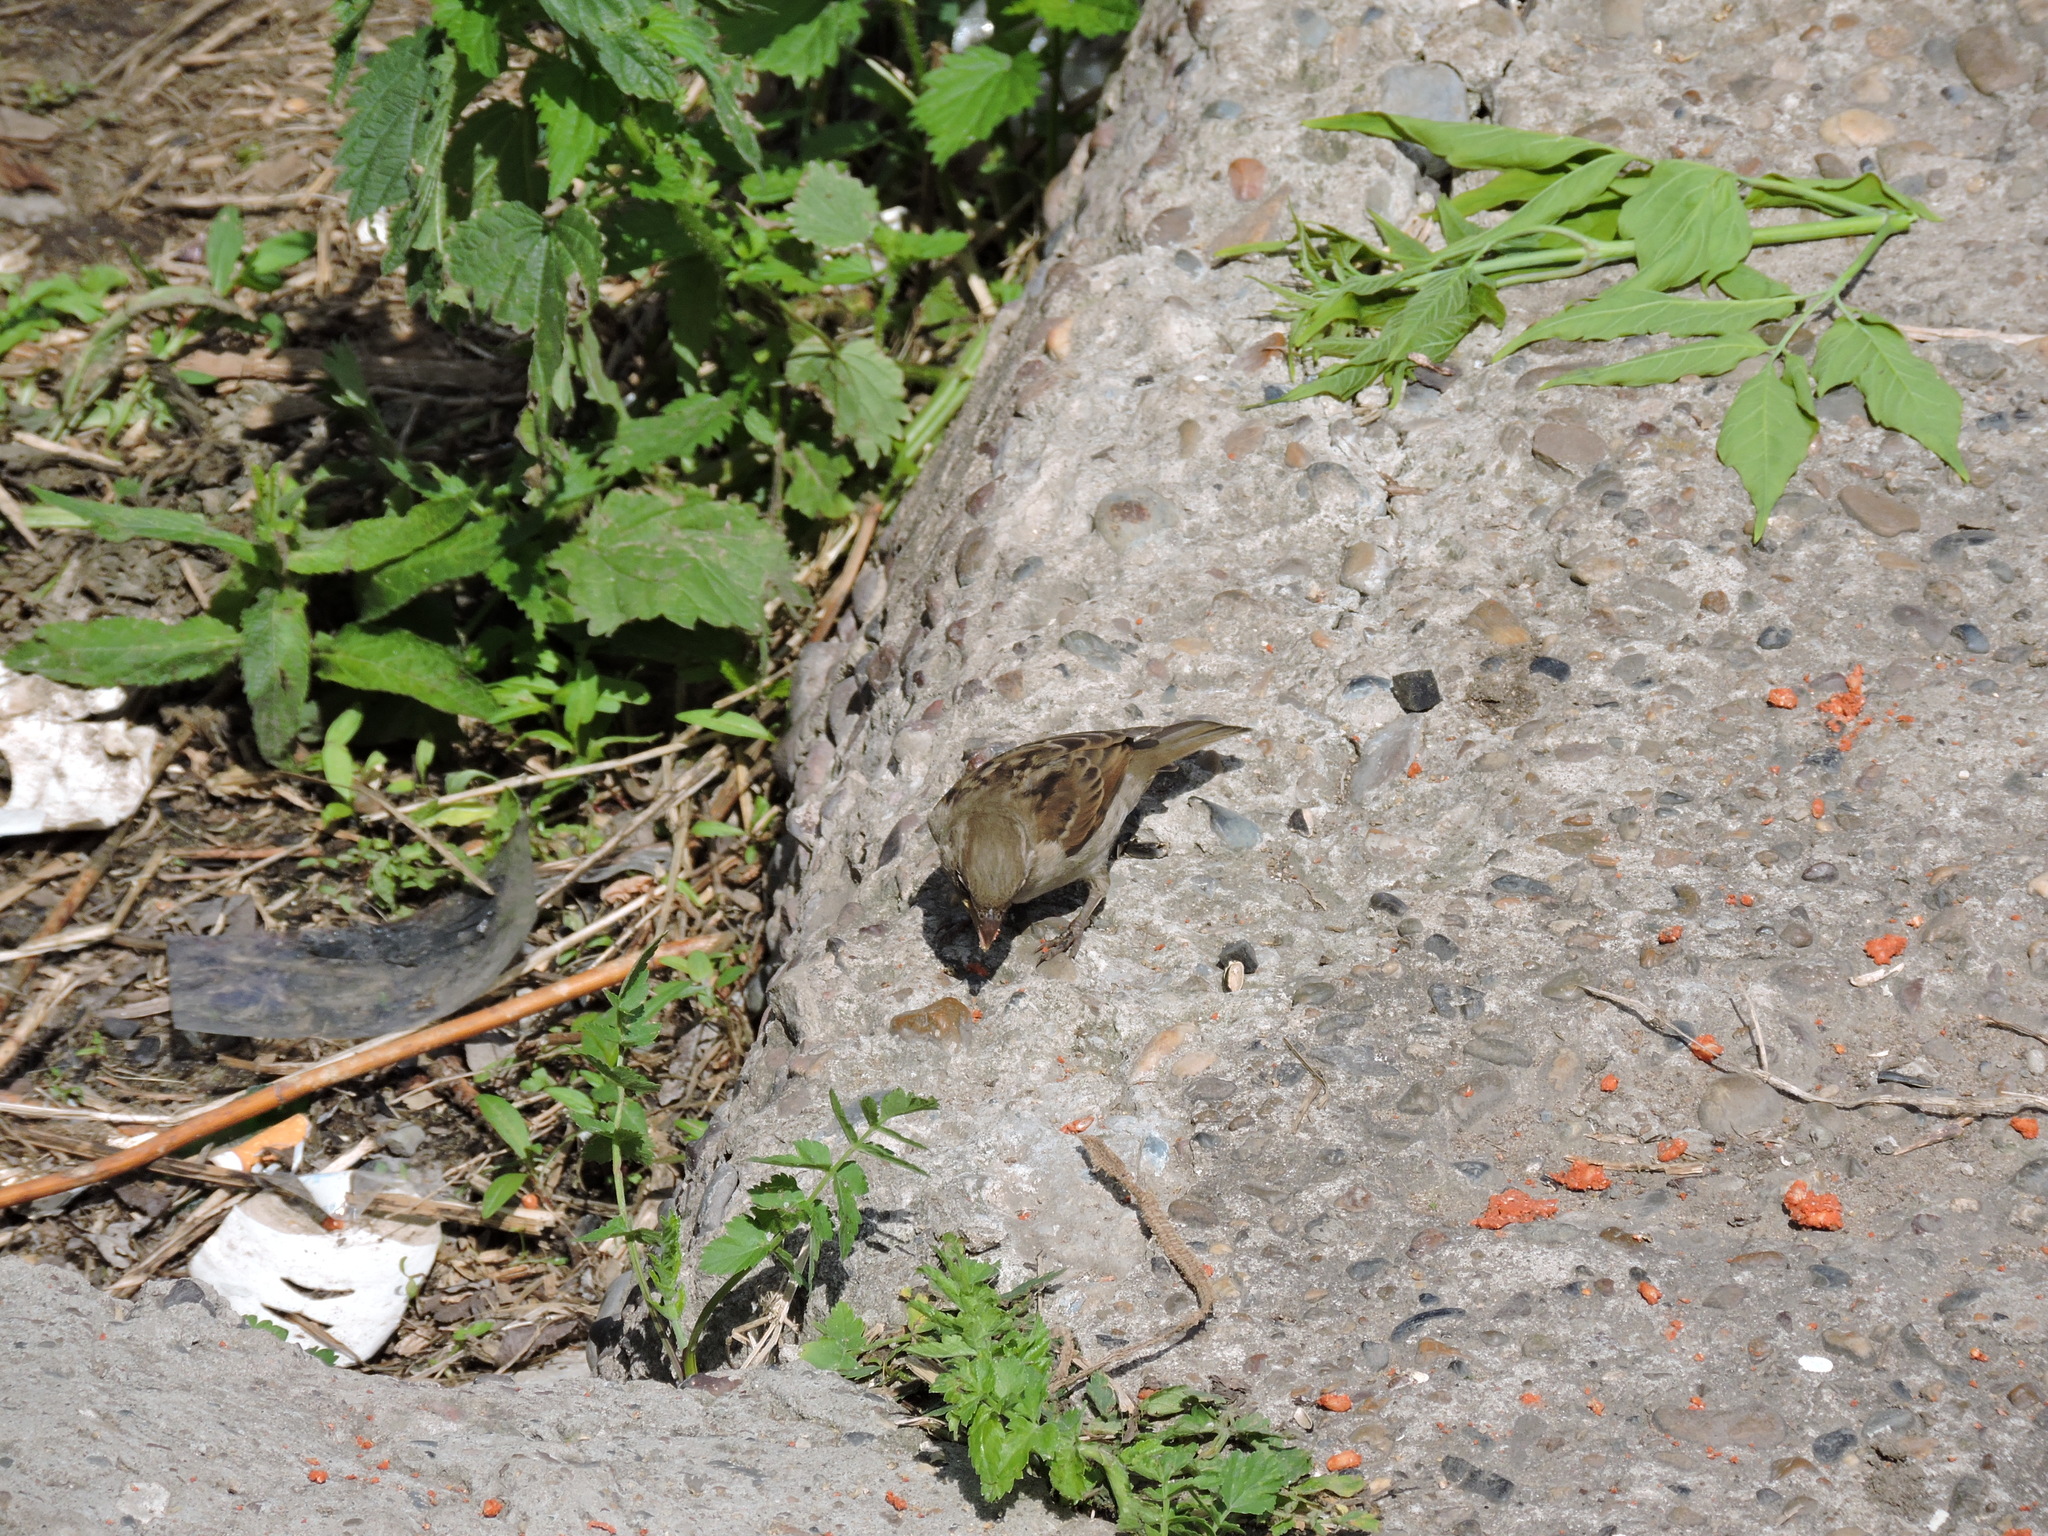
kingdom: Animalia
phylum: Chordata
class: Aves
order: Passeriformes
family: Passeridae
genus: Passer
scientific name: Passer domesticus
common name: House sparrow
